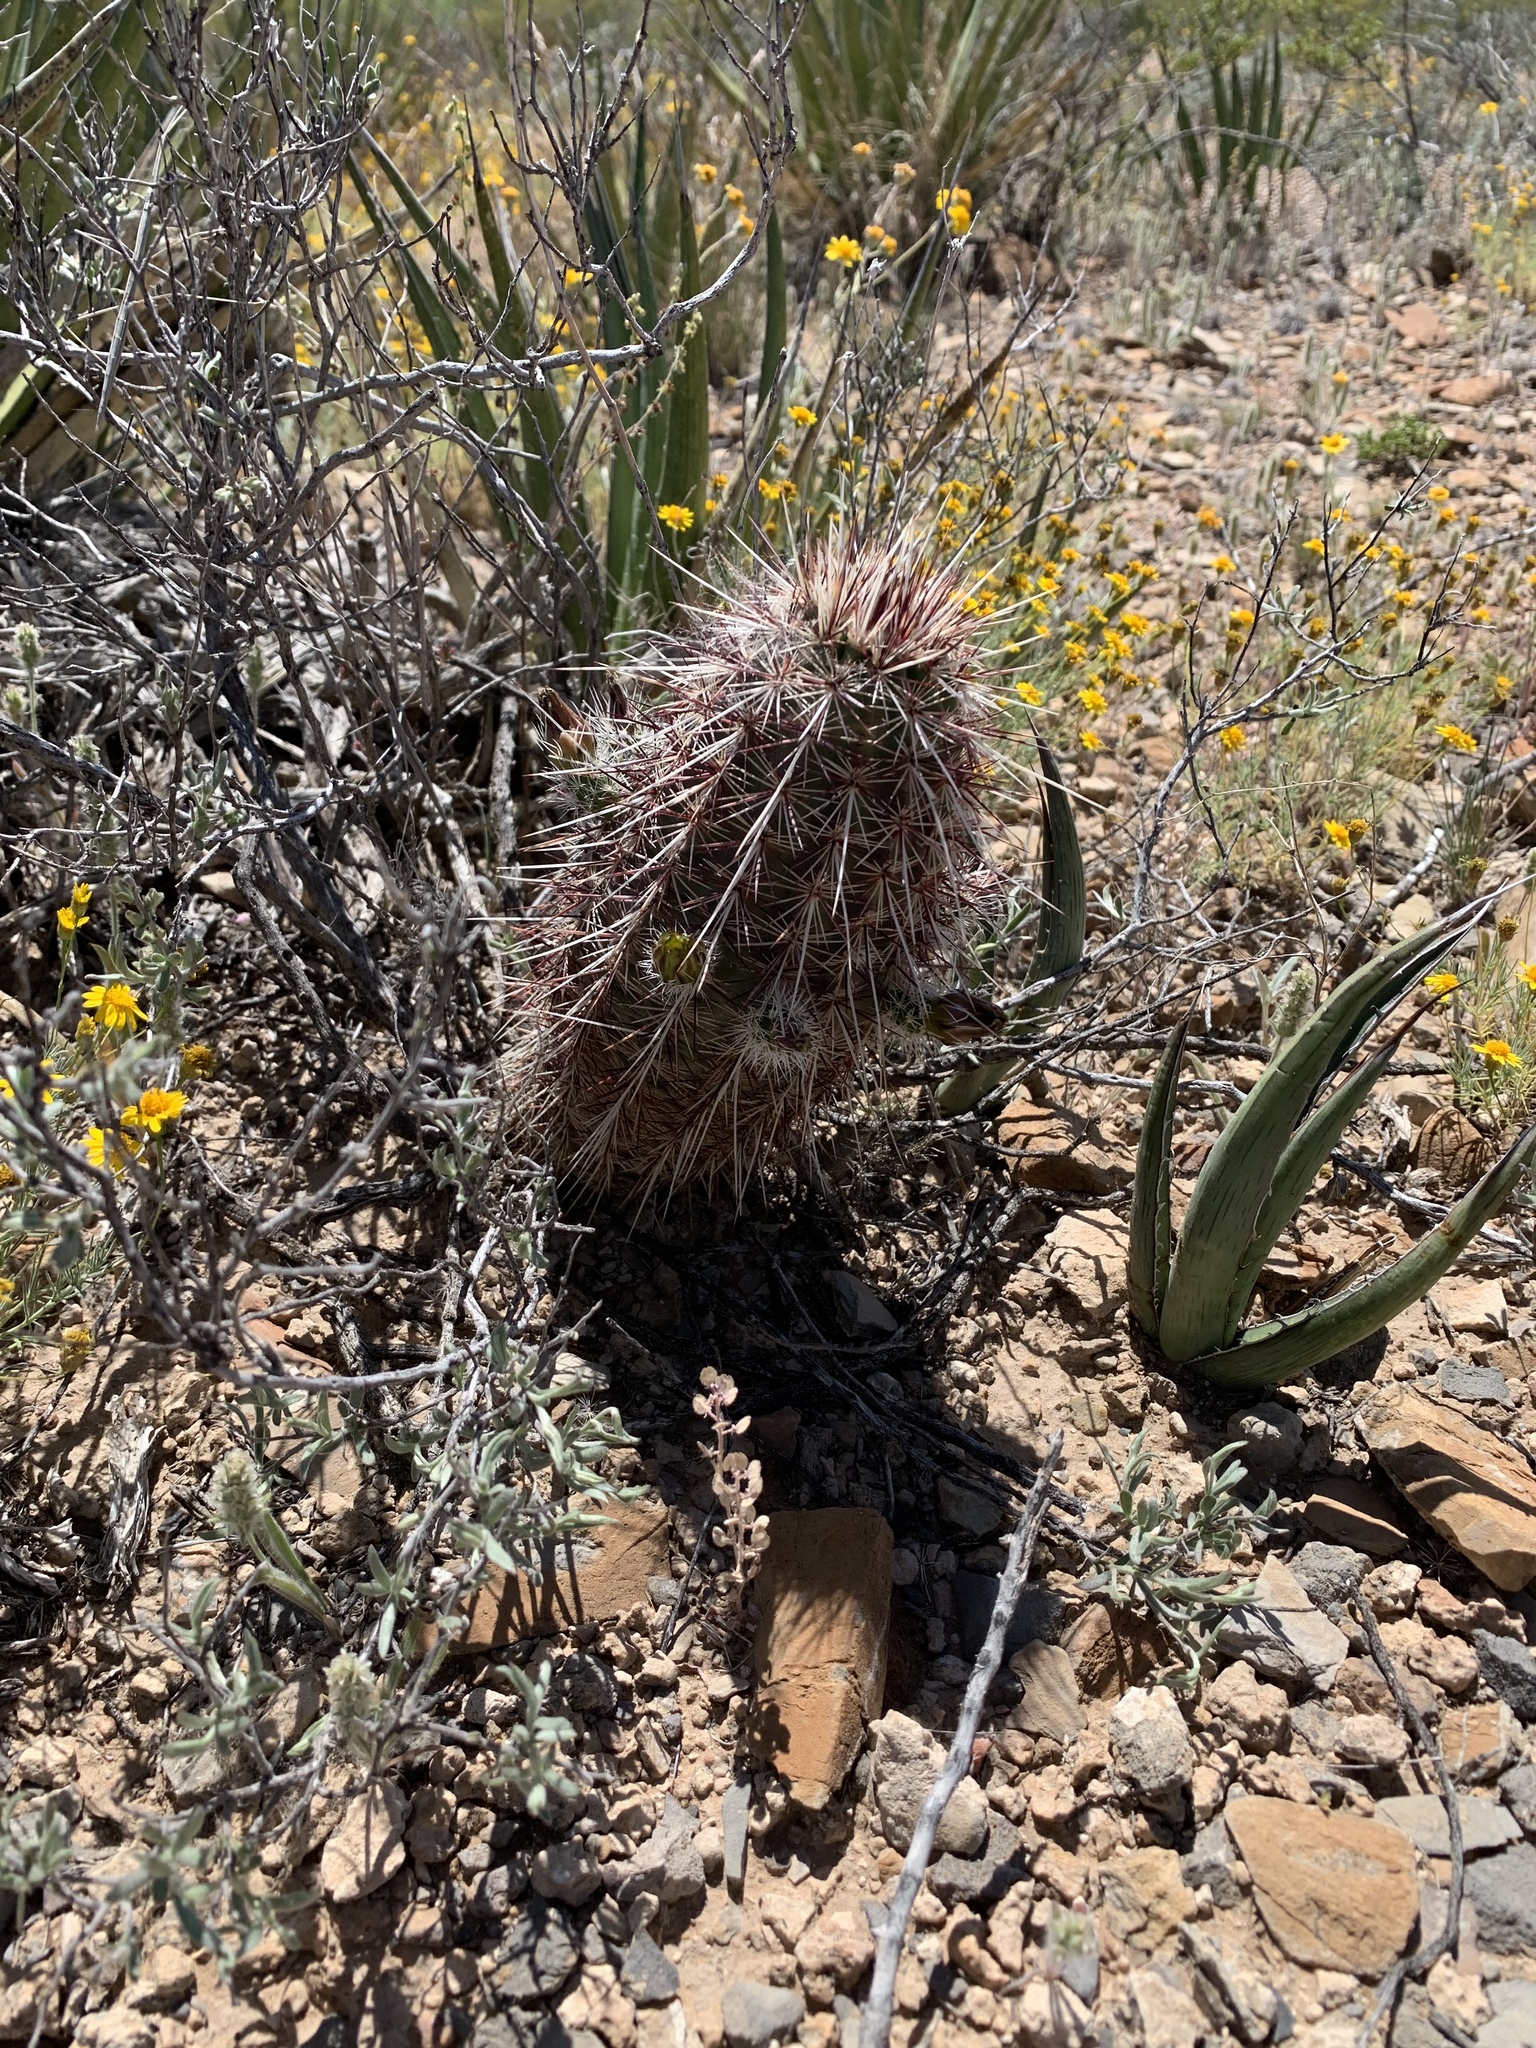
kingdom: Plantae
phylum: Tracheophyta
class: Magnoliopsida
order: Caryophyllales
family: Cactaceae
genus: Echinocereus
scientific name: Echinocereus viridiflorus
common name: Nylon hedgehog cactus
